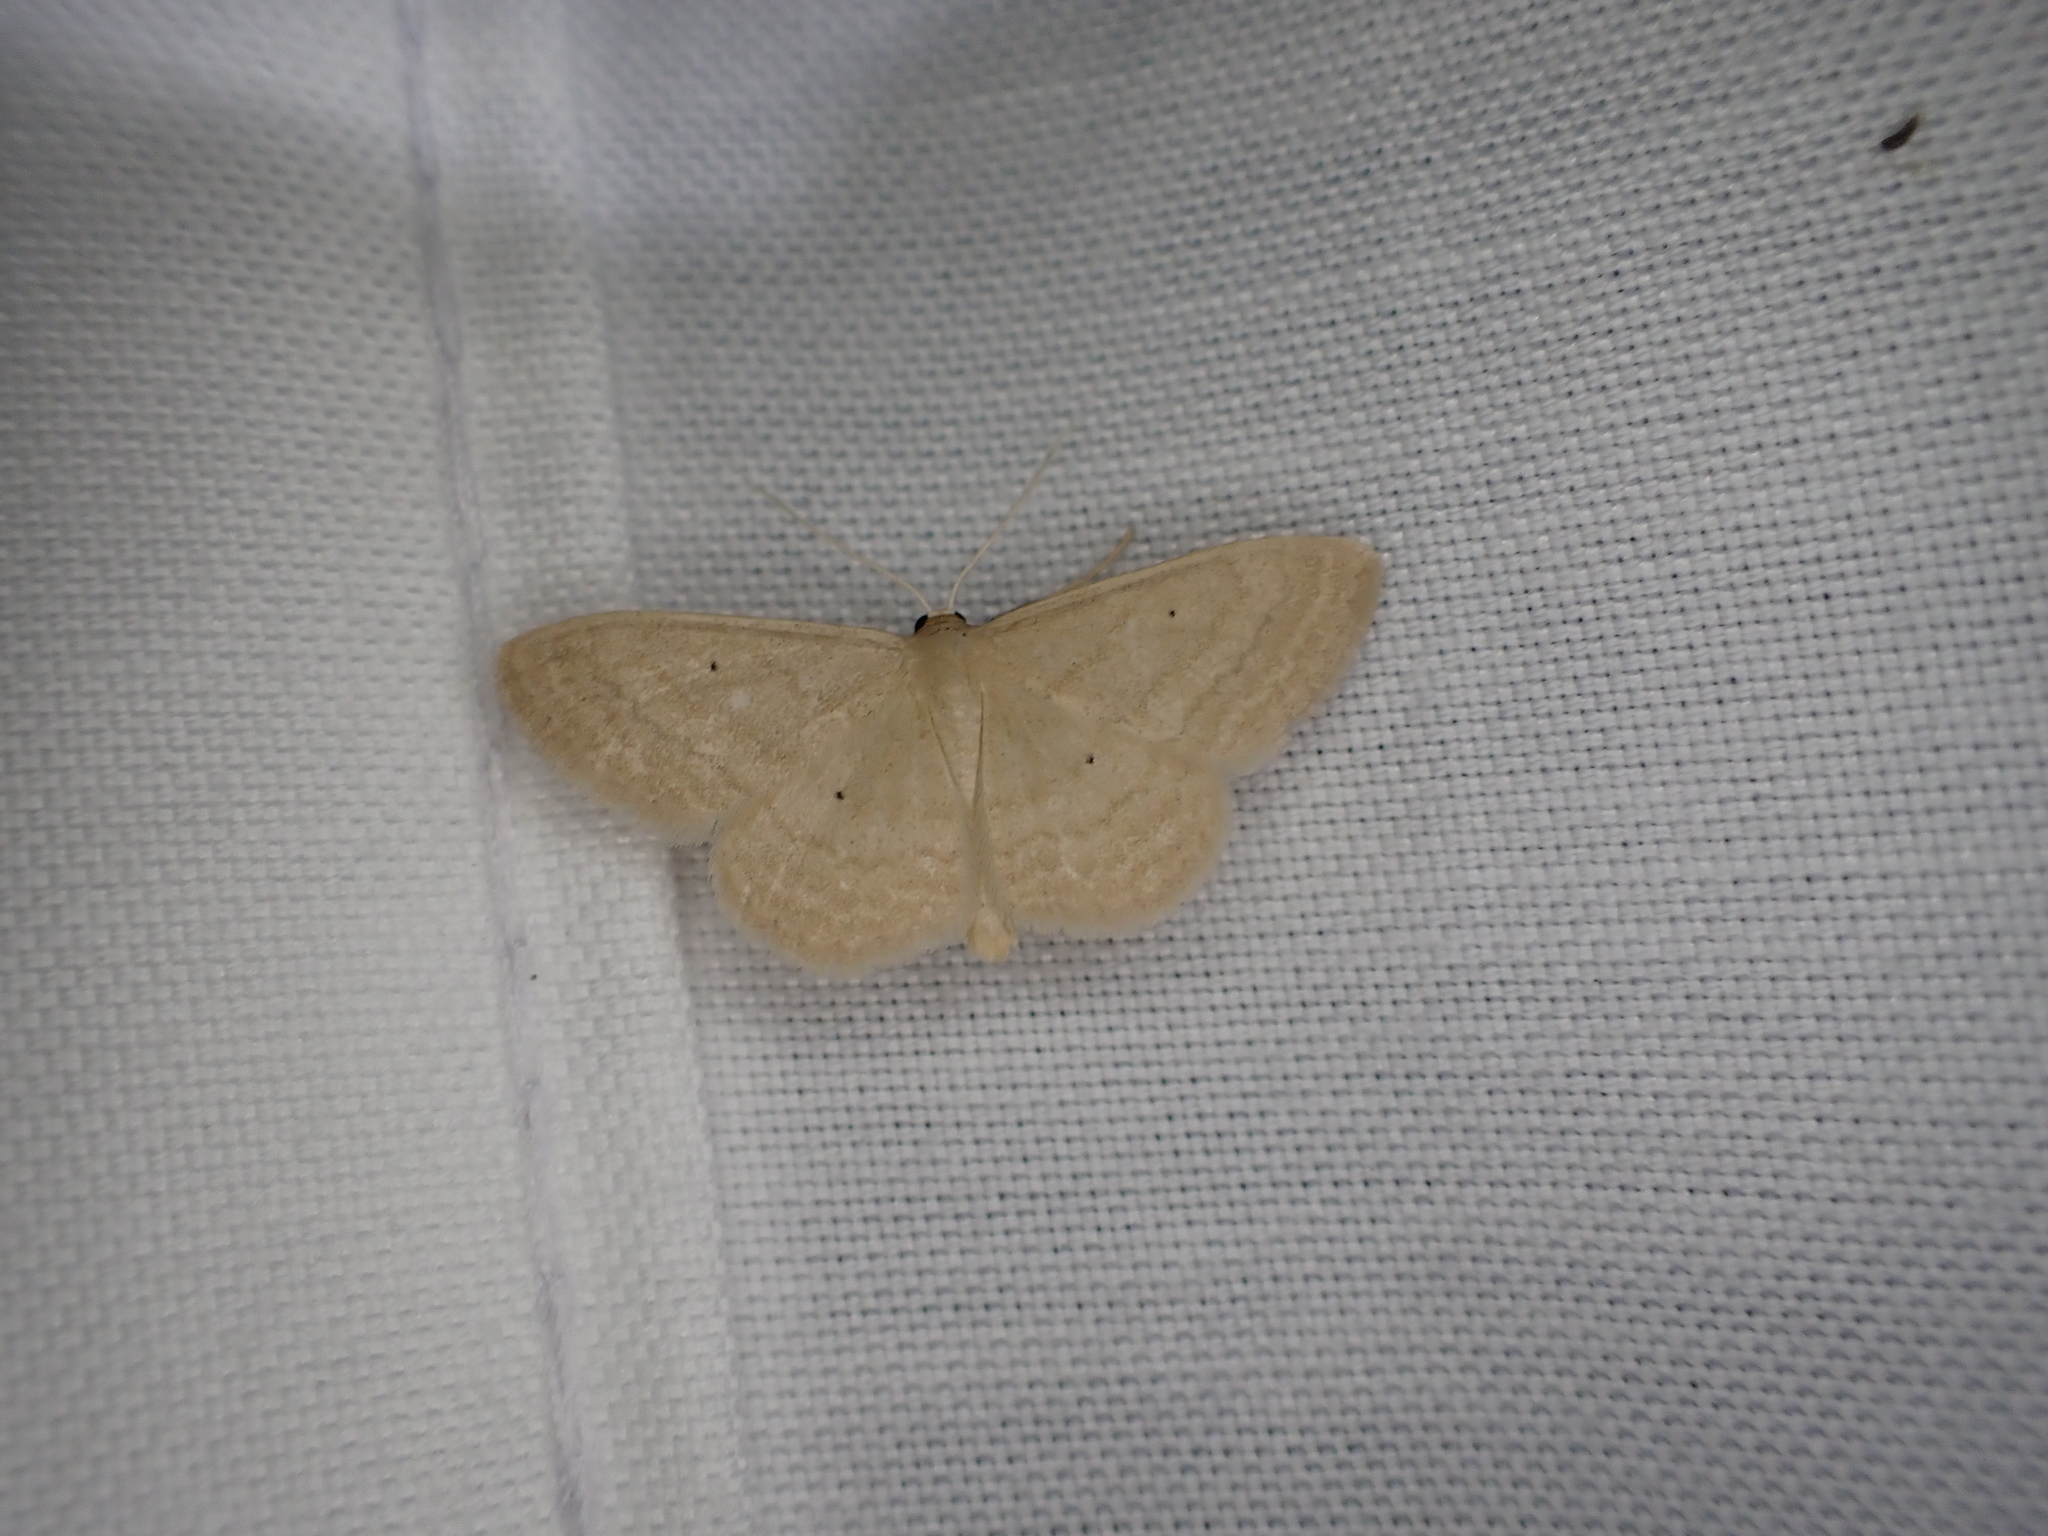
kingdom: Animalia
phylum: Arthropoda
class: Insecta
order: Lepidoptera
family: Geometridae
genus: Scopula
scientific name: Scopula inductata
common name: Soft-lined wave
